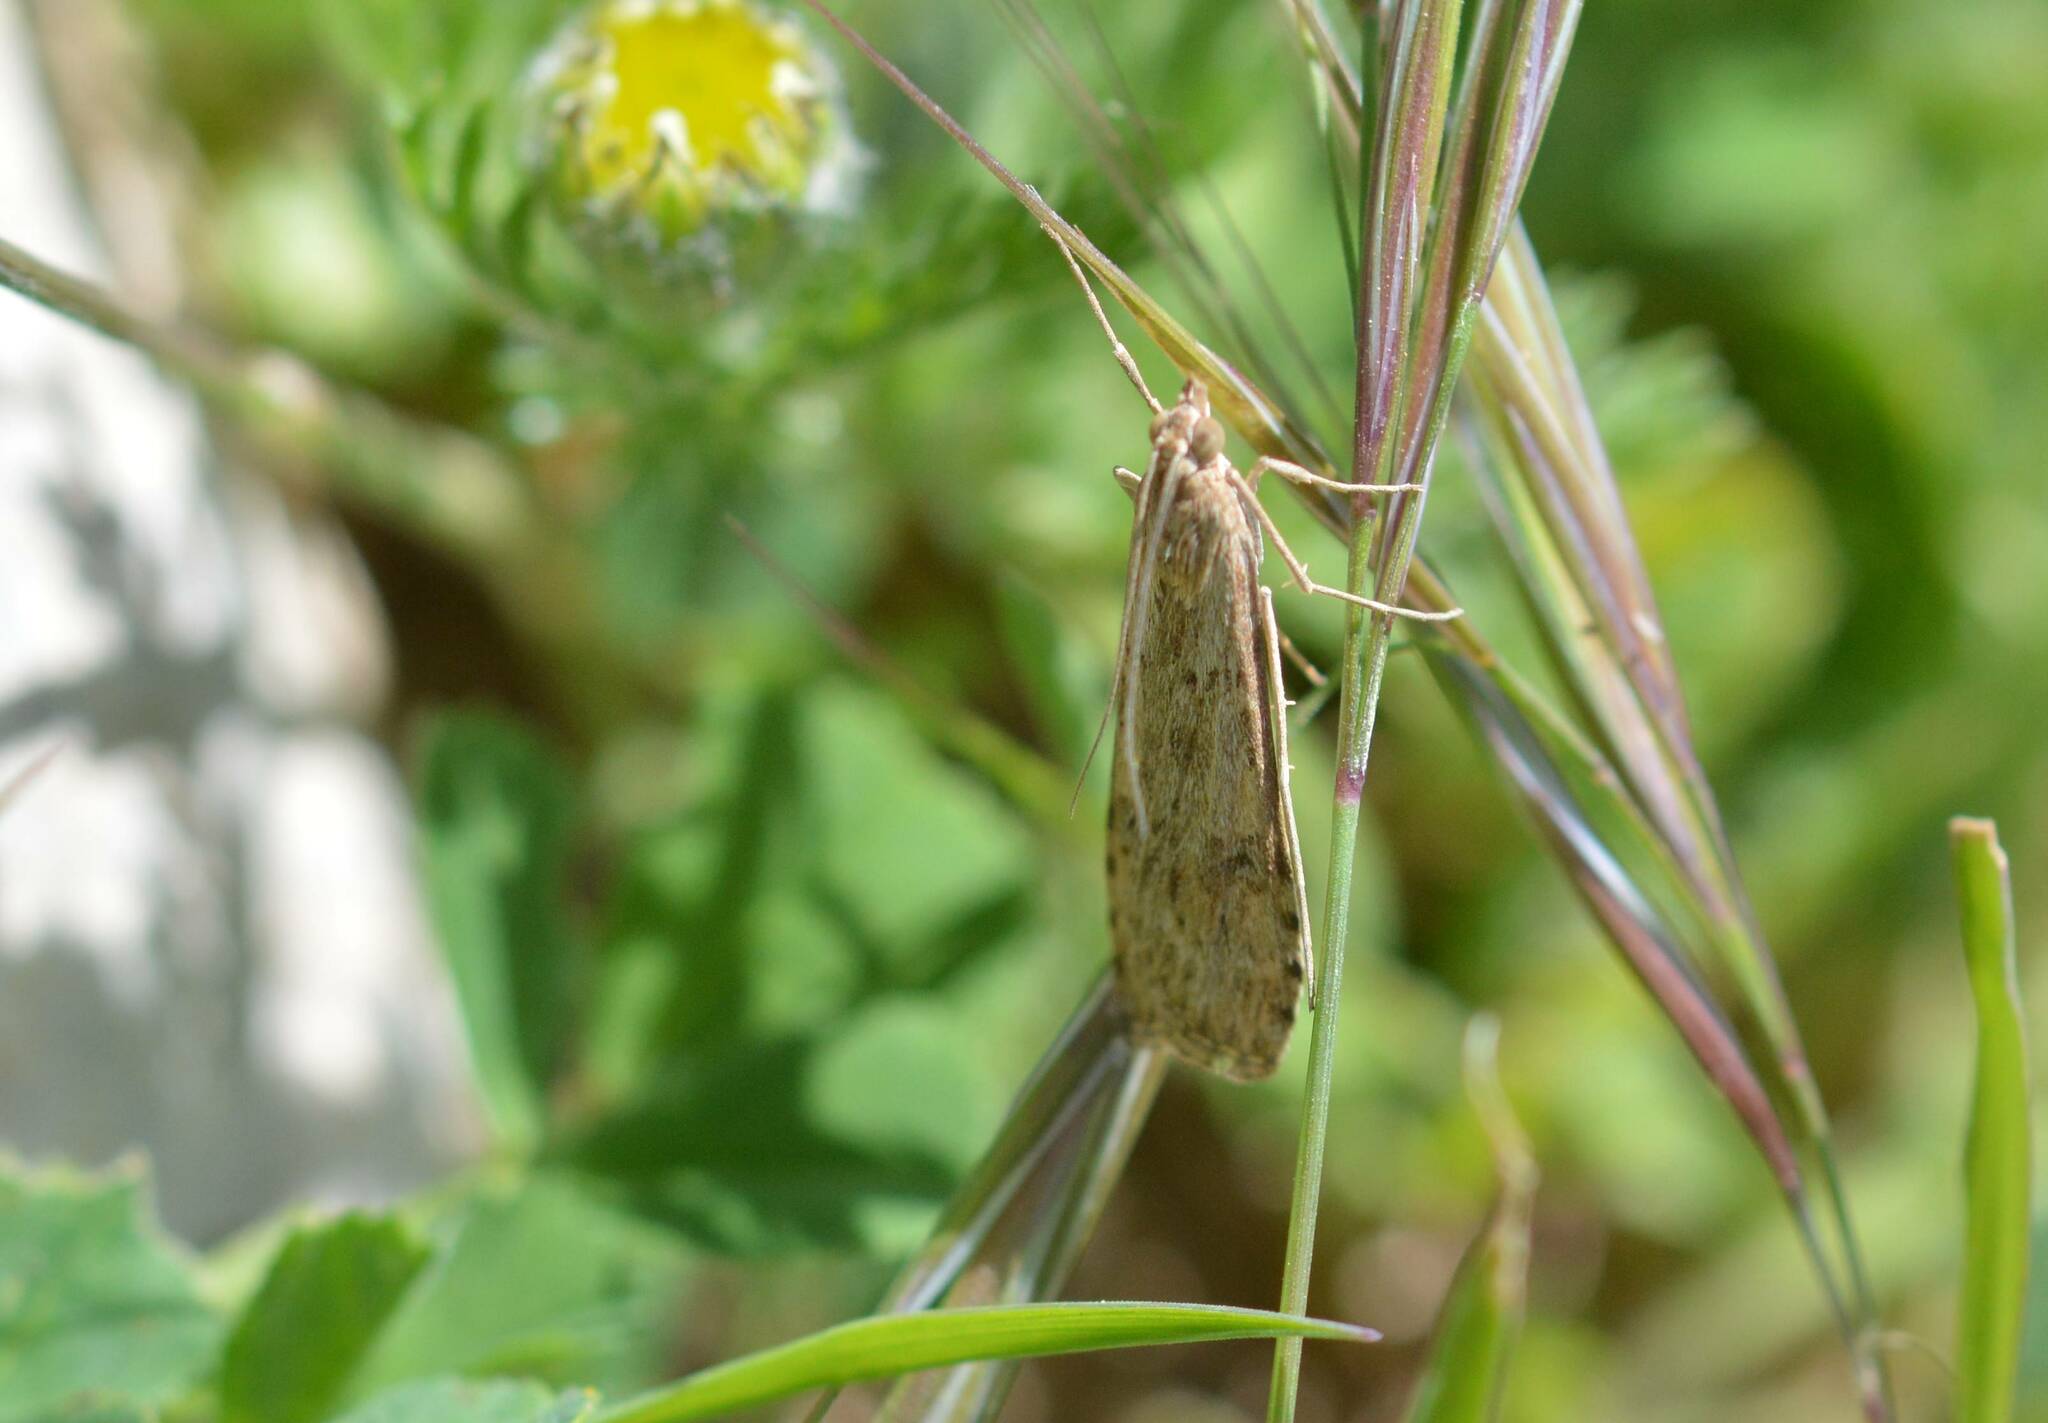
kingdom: Animalia
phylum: Arthropoda
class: Insecta
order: Lepidoptera
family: Crambidae
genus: Nomophila
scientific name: Nomophila noctuella
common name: Rush veneer
